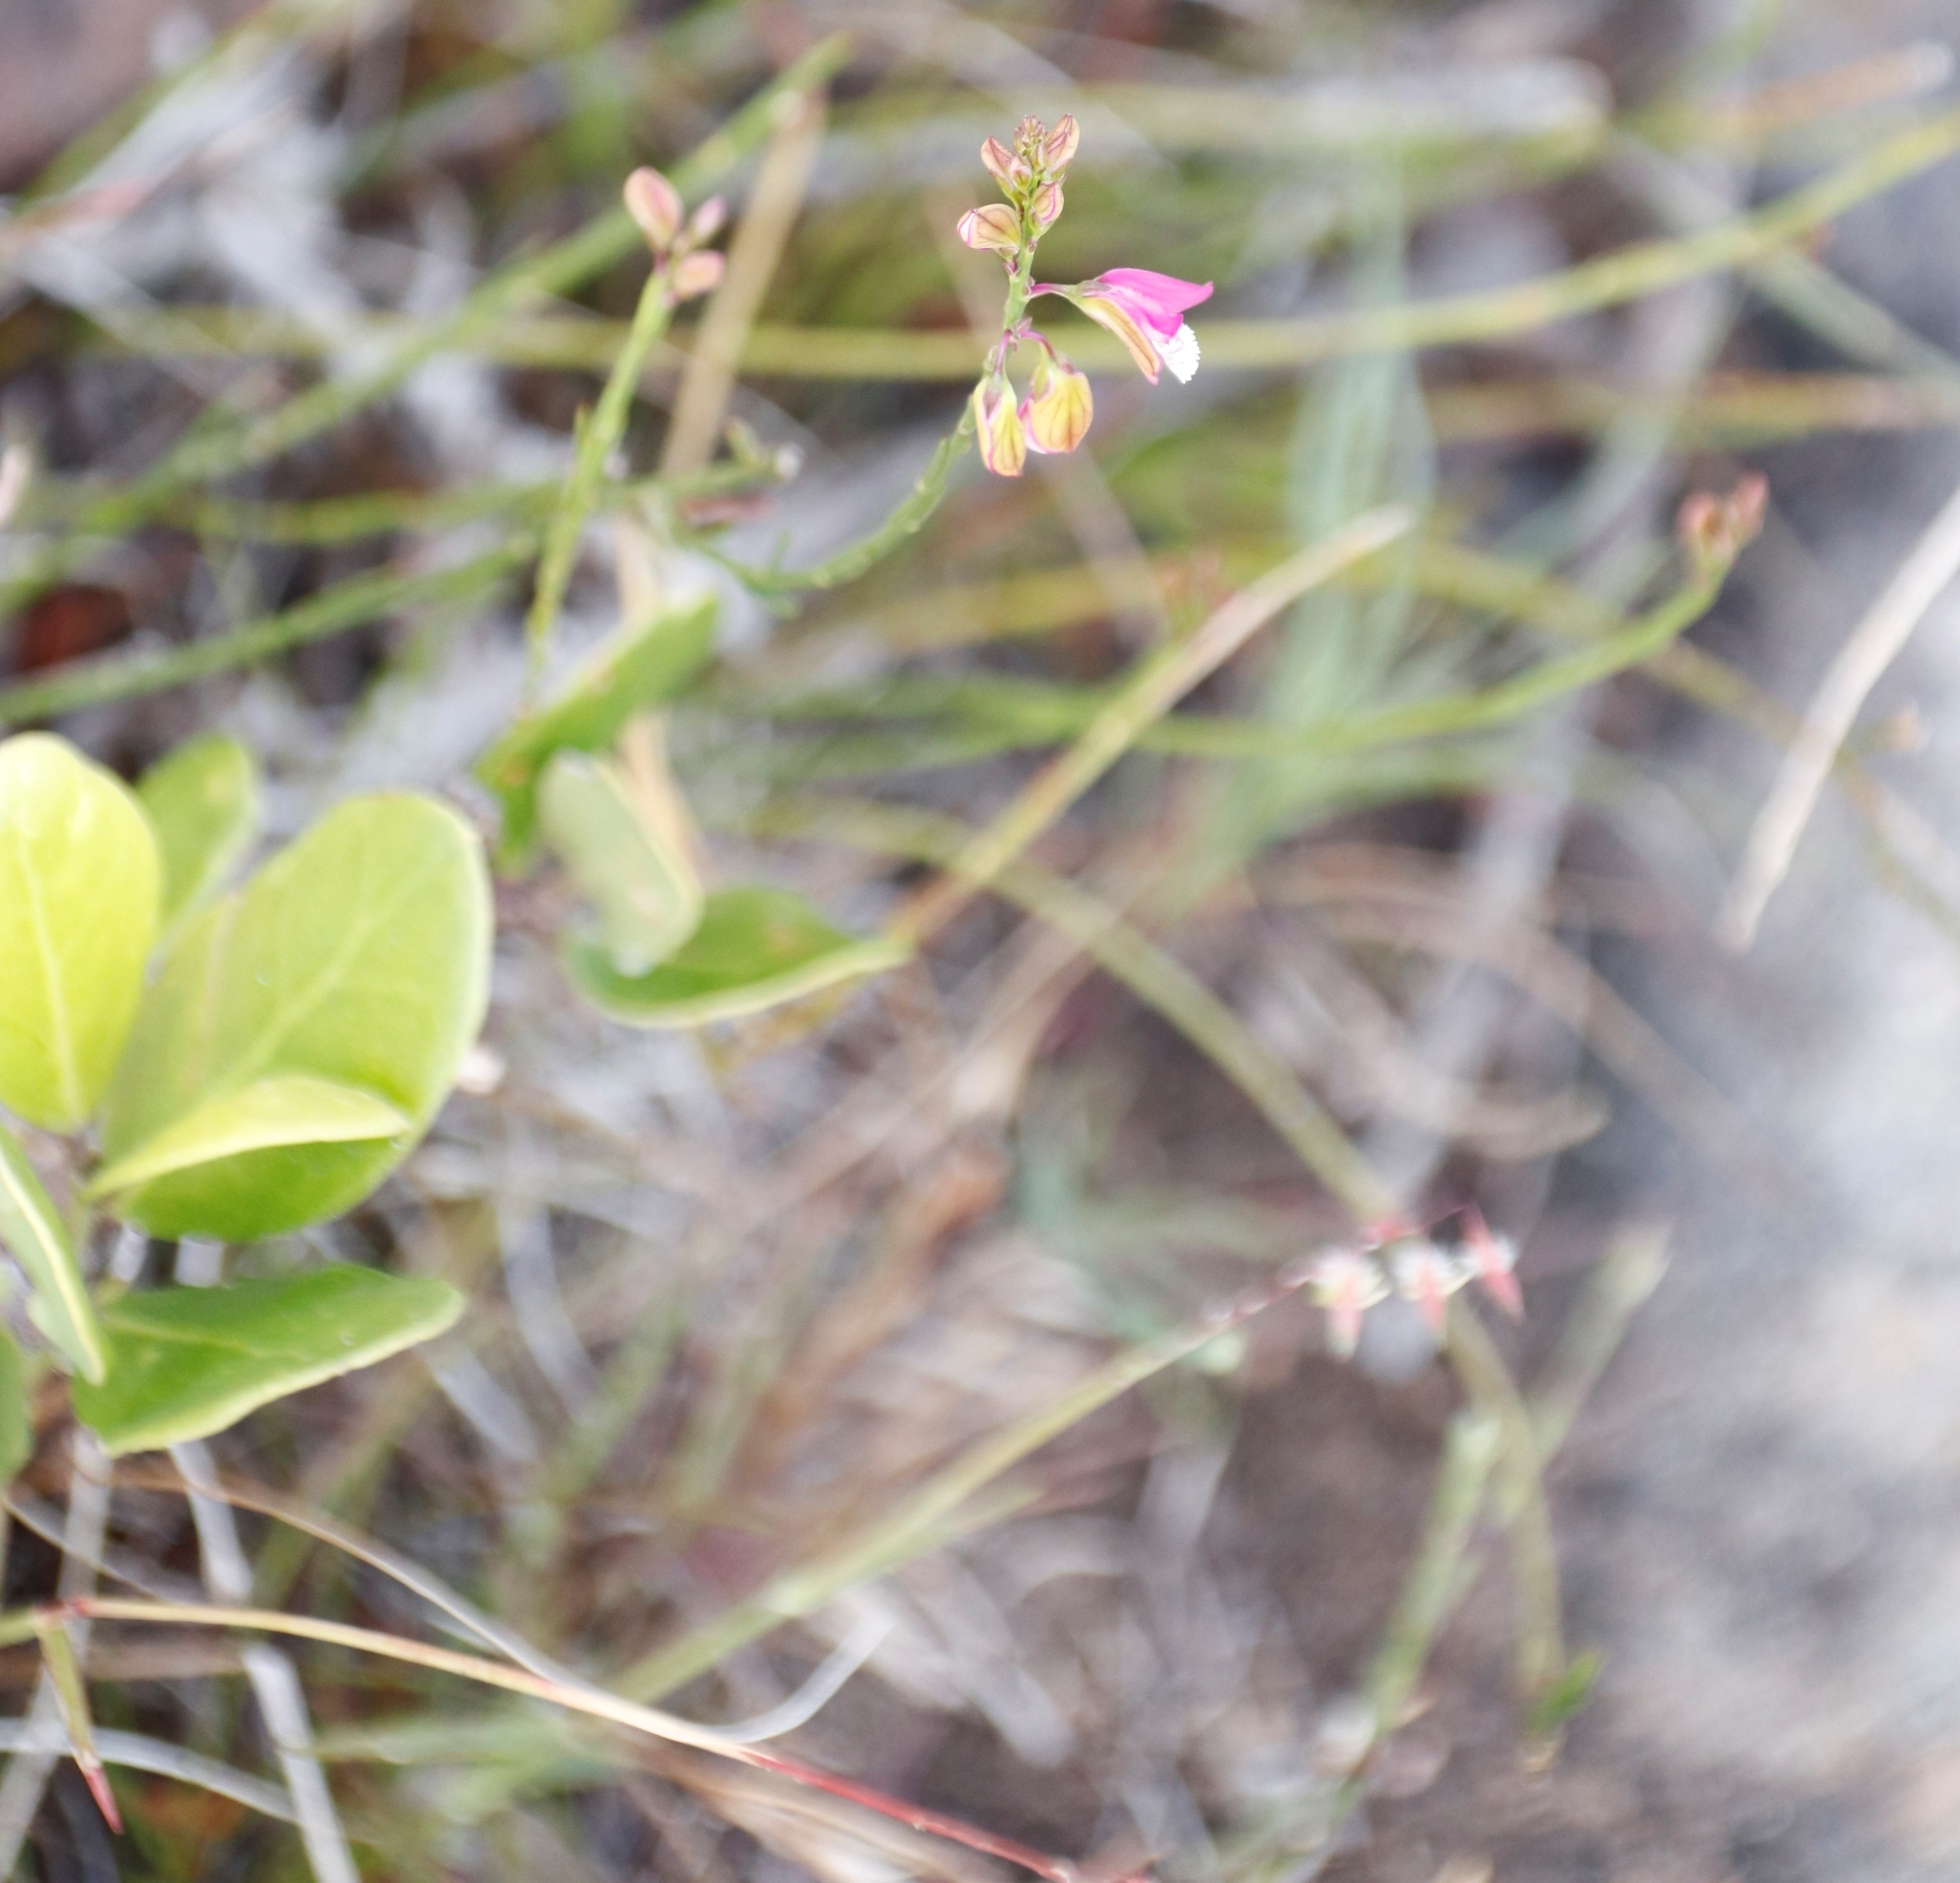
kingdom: Plantae
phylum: Tracheophyta
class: Magnoliopsida
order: Fabales
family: Polygalaceae
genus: Polygala
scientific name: Polygala garcini
